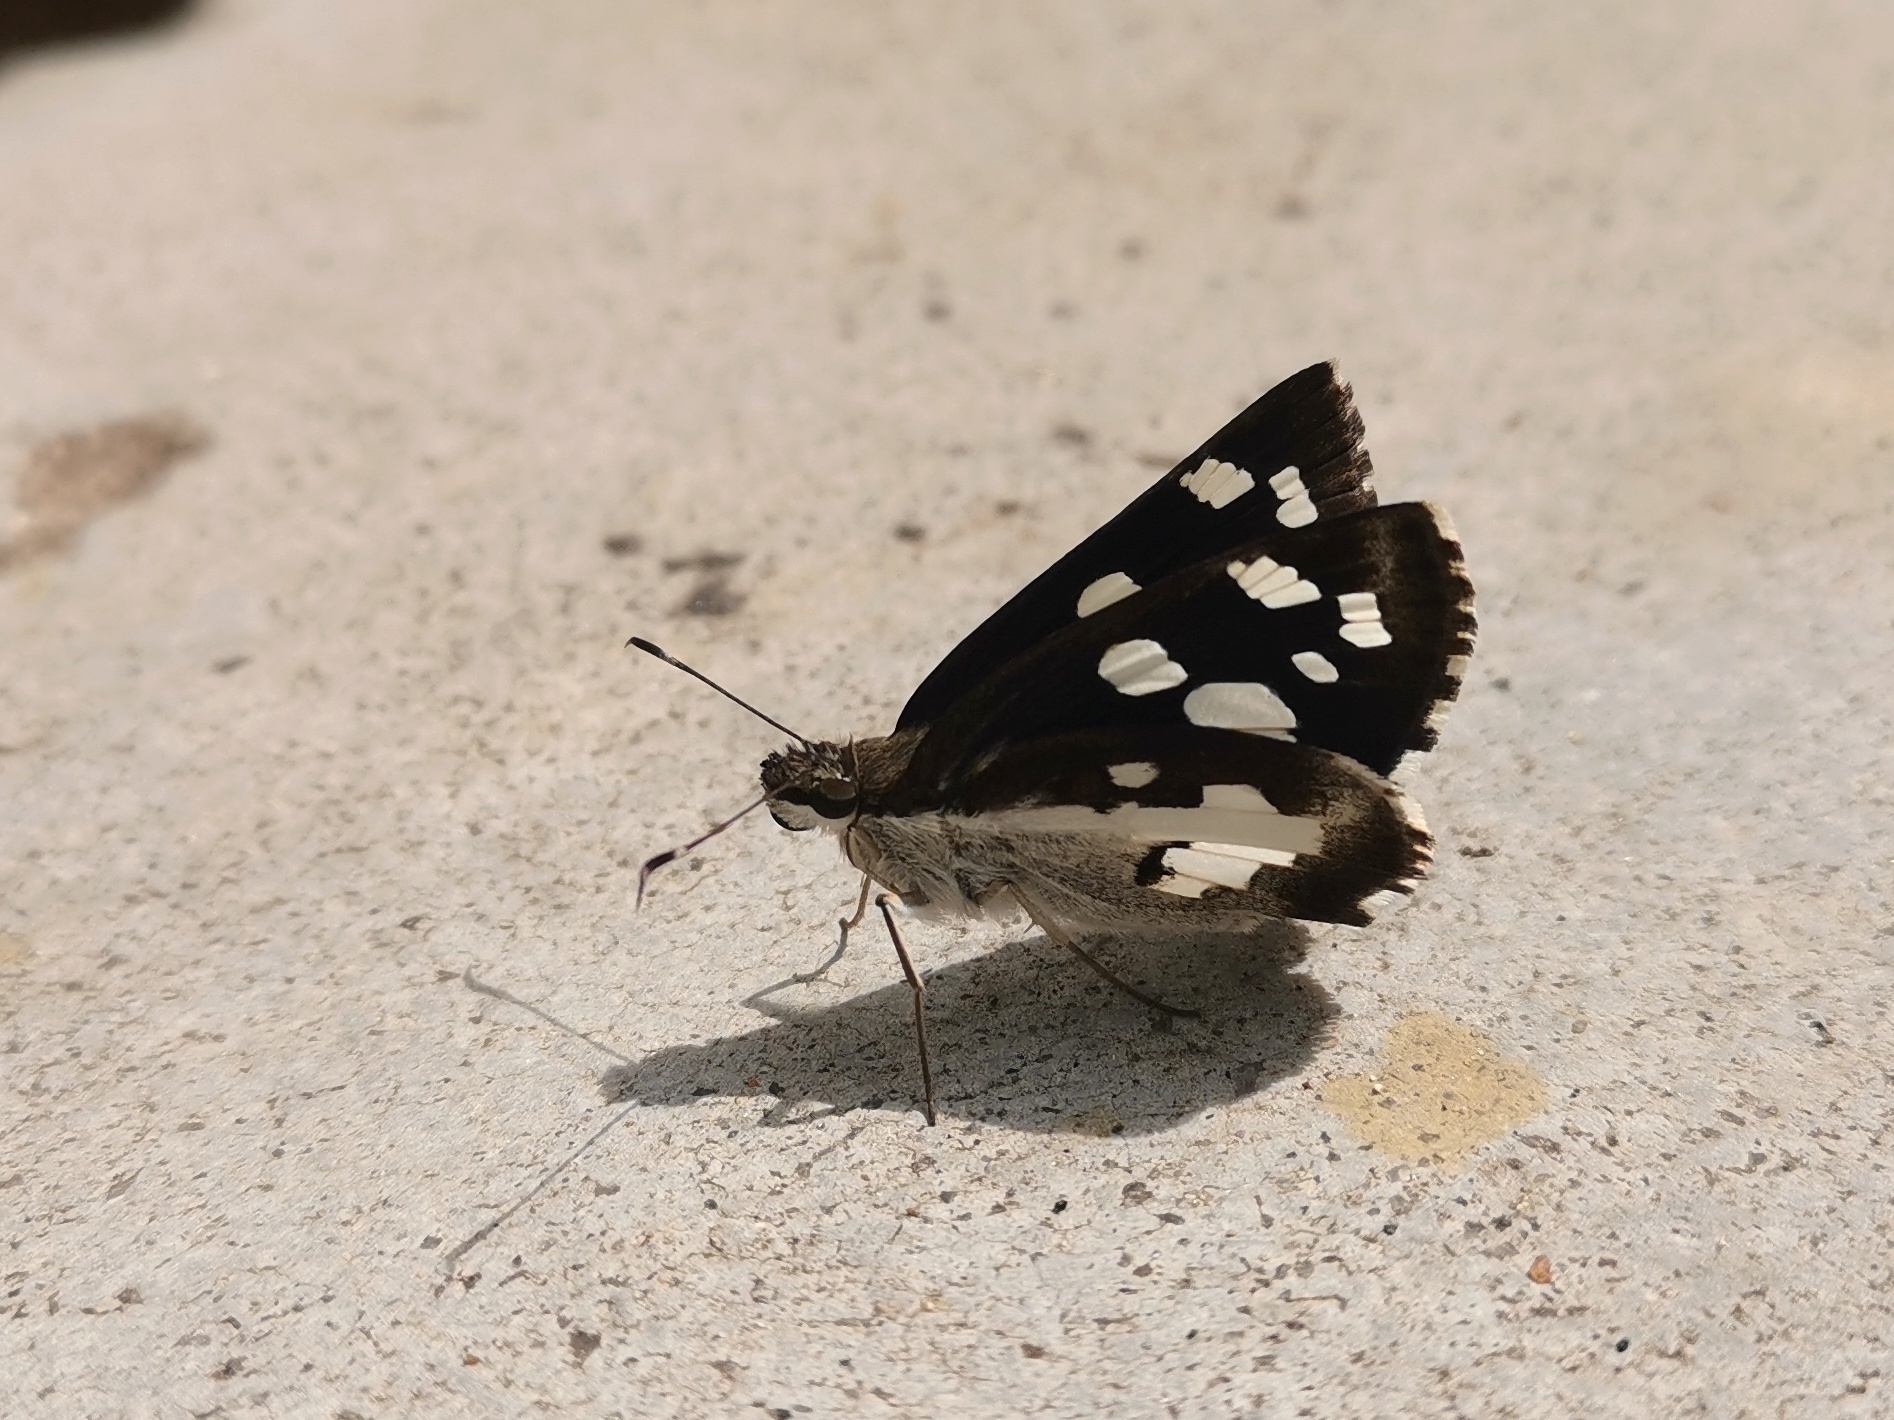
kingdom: Animalia
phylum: Arthropoda
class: Insecta
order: Lepidoptera
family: Hesperiidae
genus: Udaspes
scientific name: Udaspes folus
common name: Grass demon
